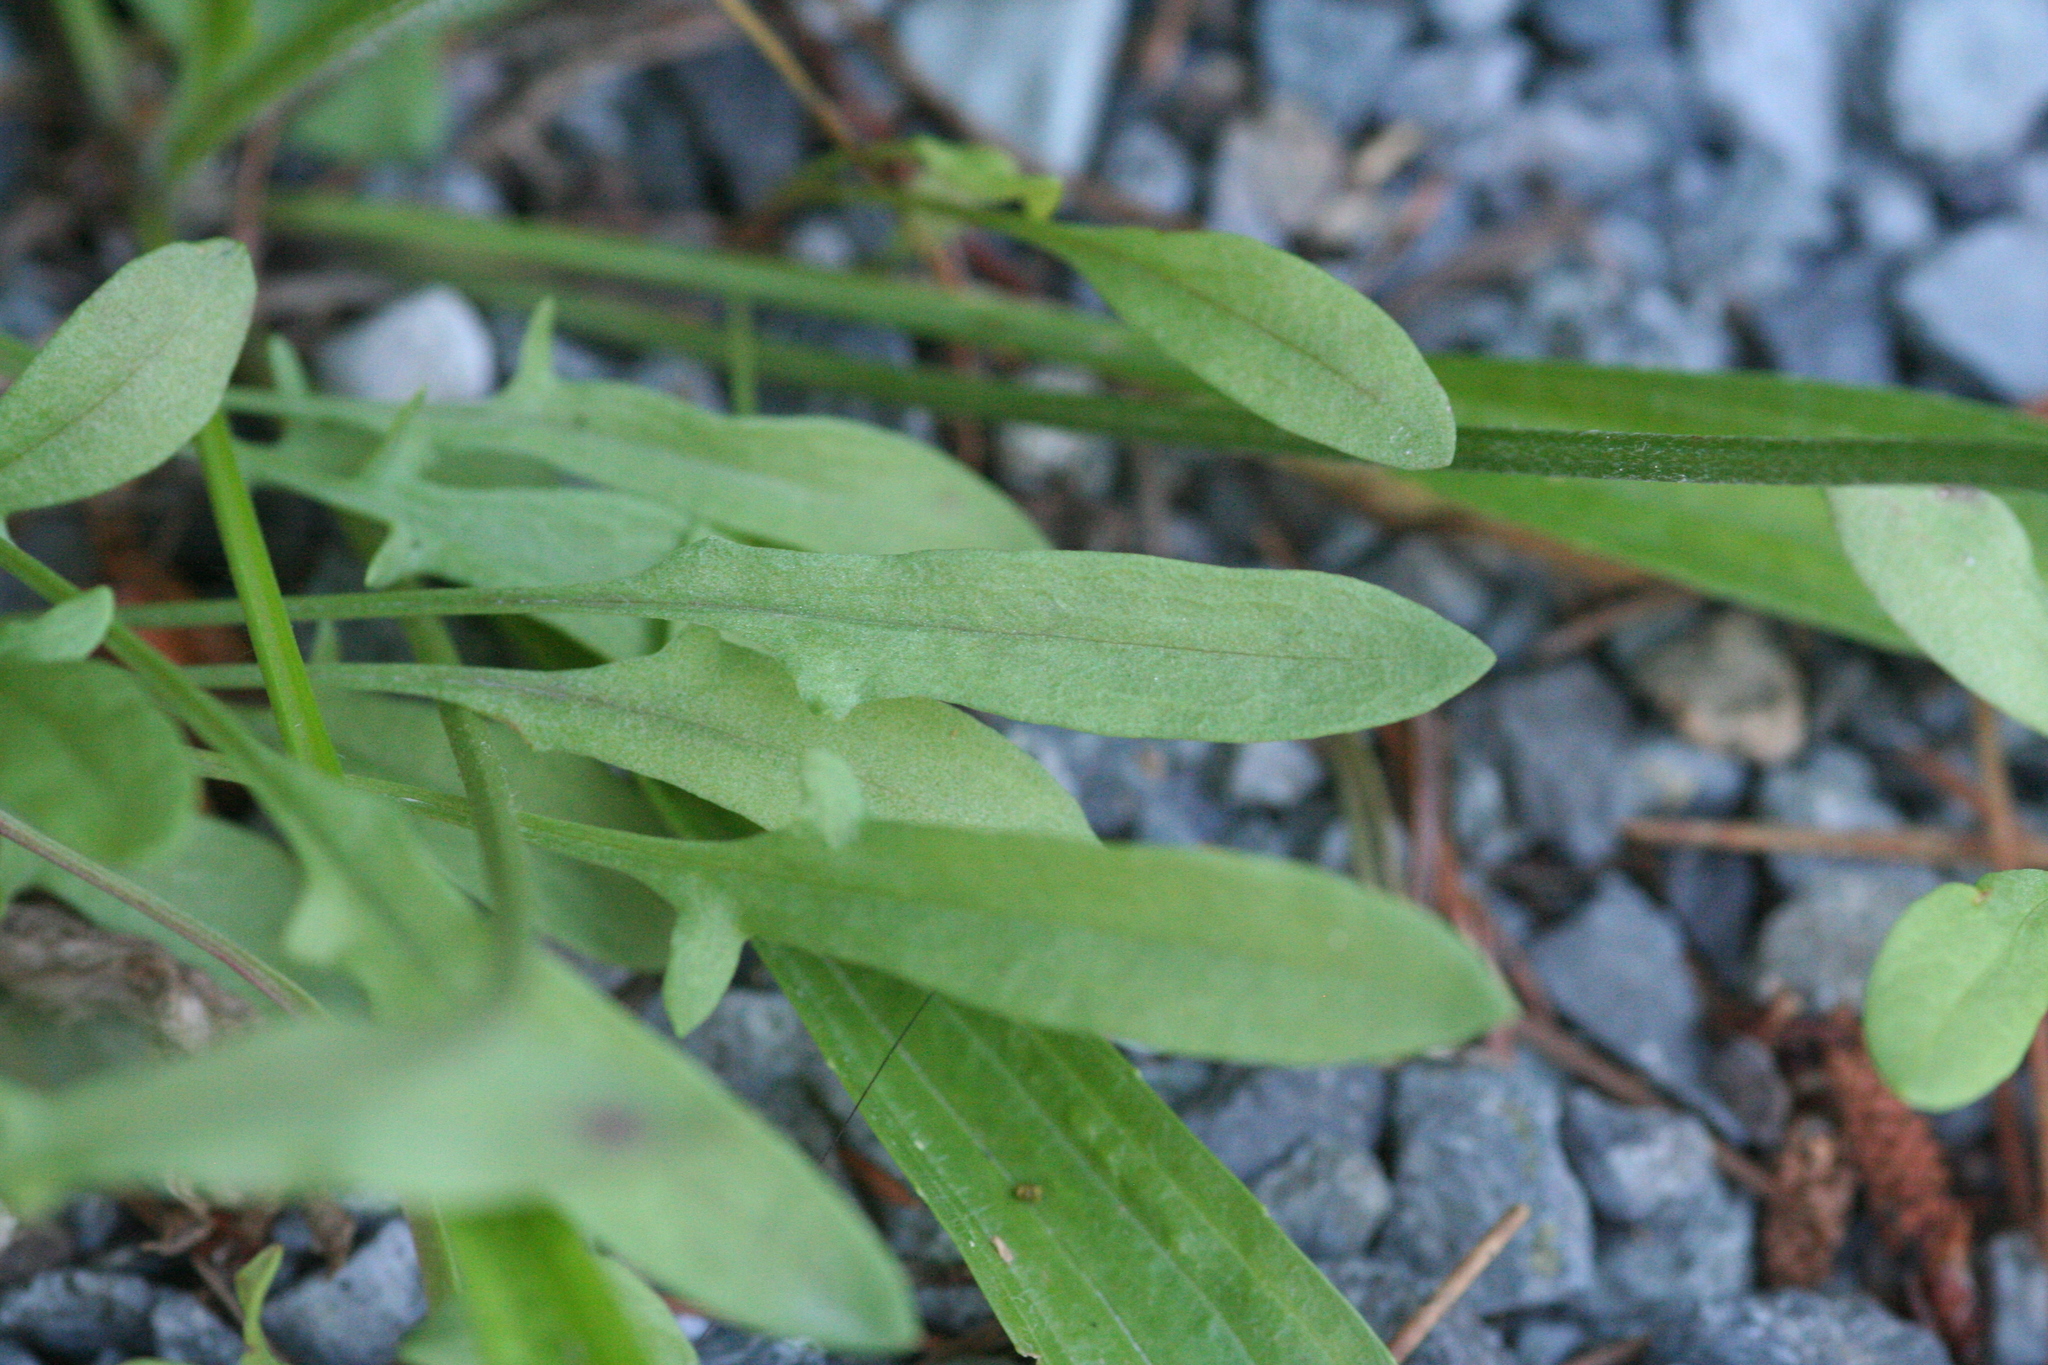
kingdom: Plantae
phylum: Tracheophyta
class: Magnoliopsida
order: Caryophyllales
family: Polygonaceae
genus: Rumex
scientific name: Rumex acetosella
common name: Common sheep sorrel
